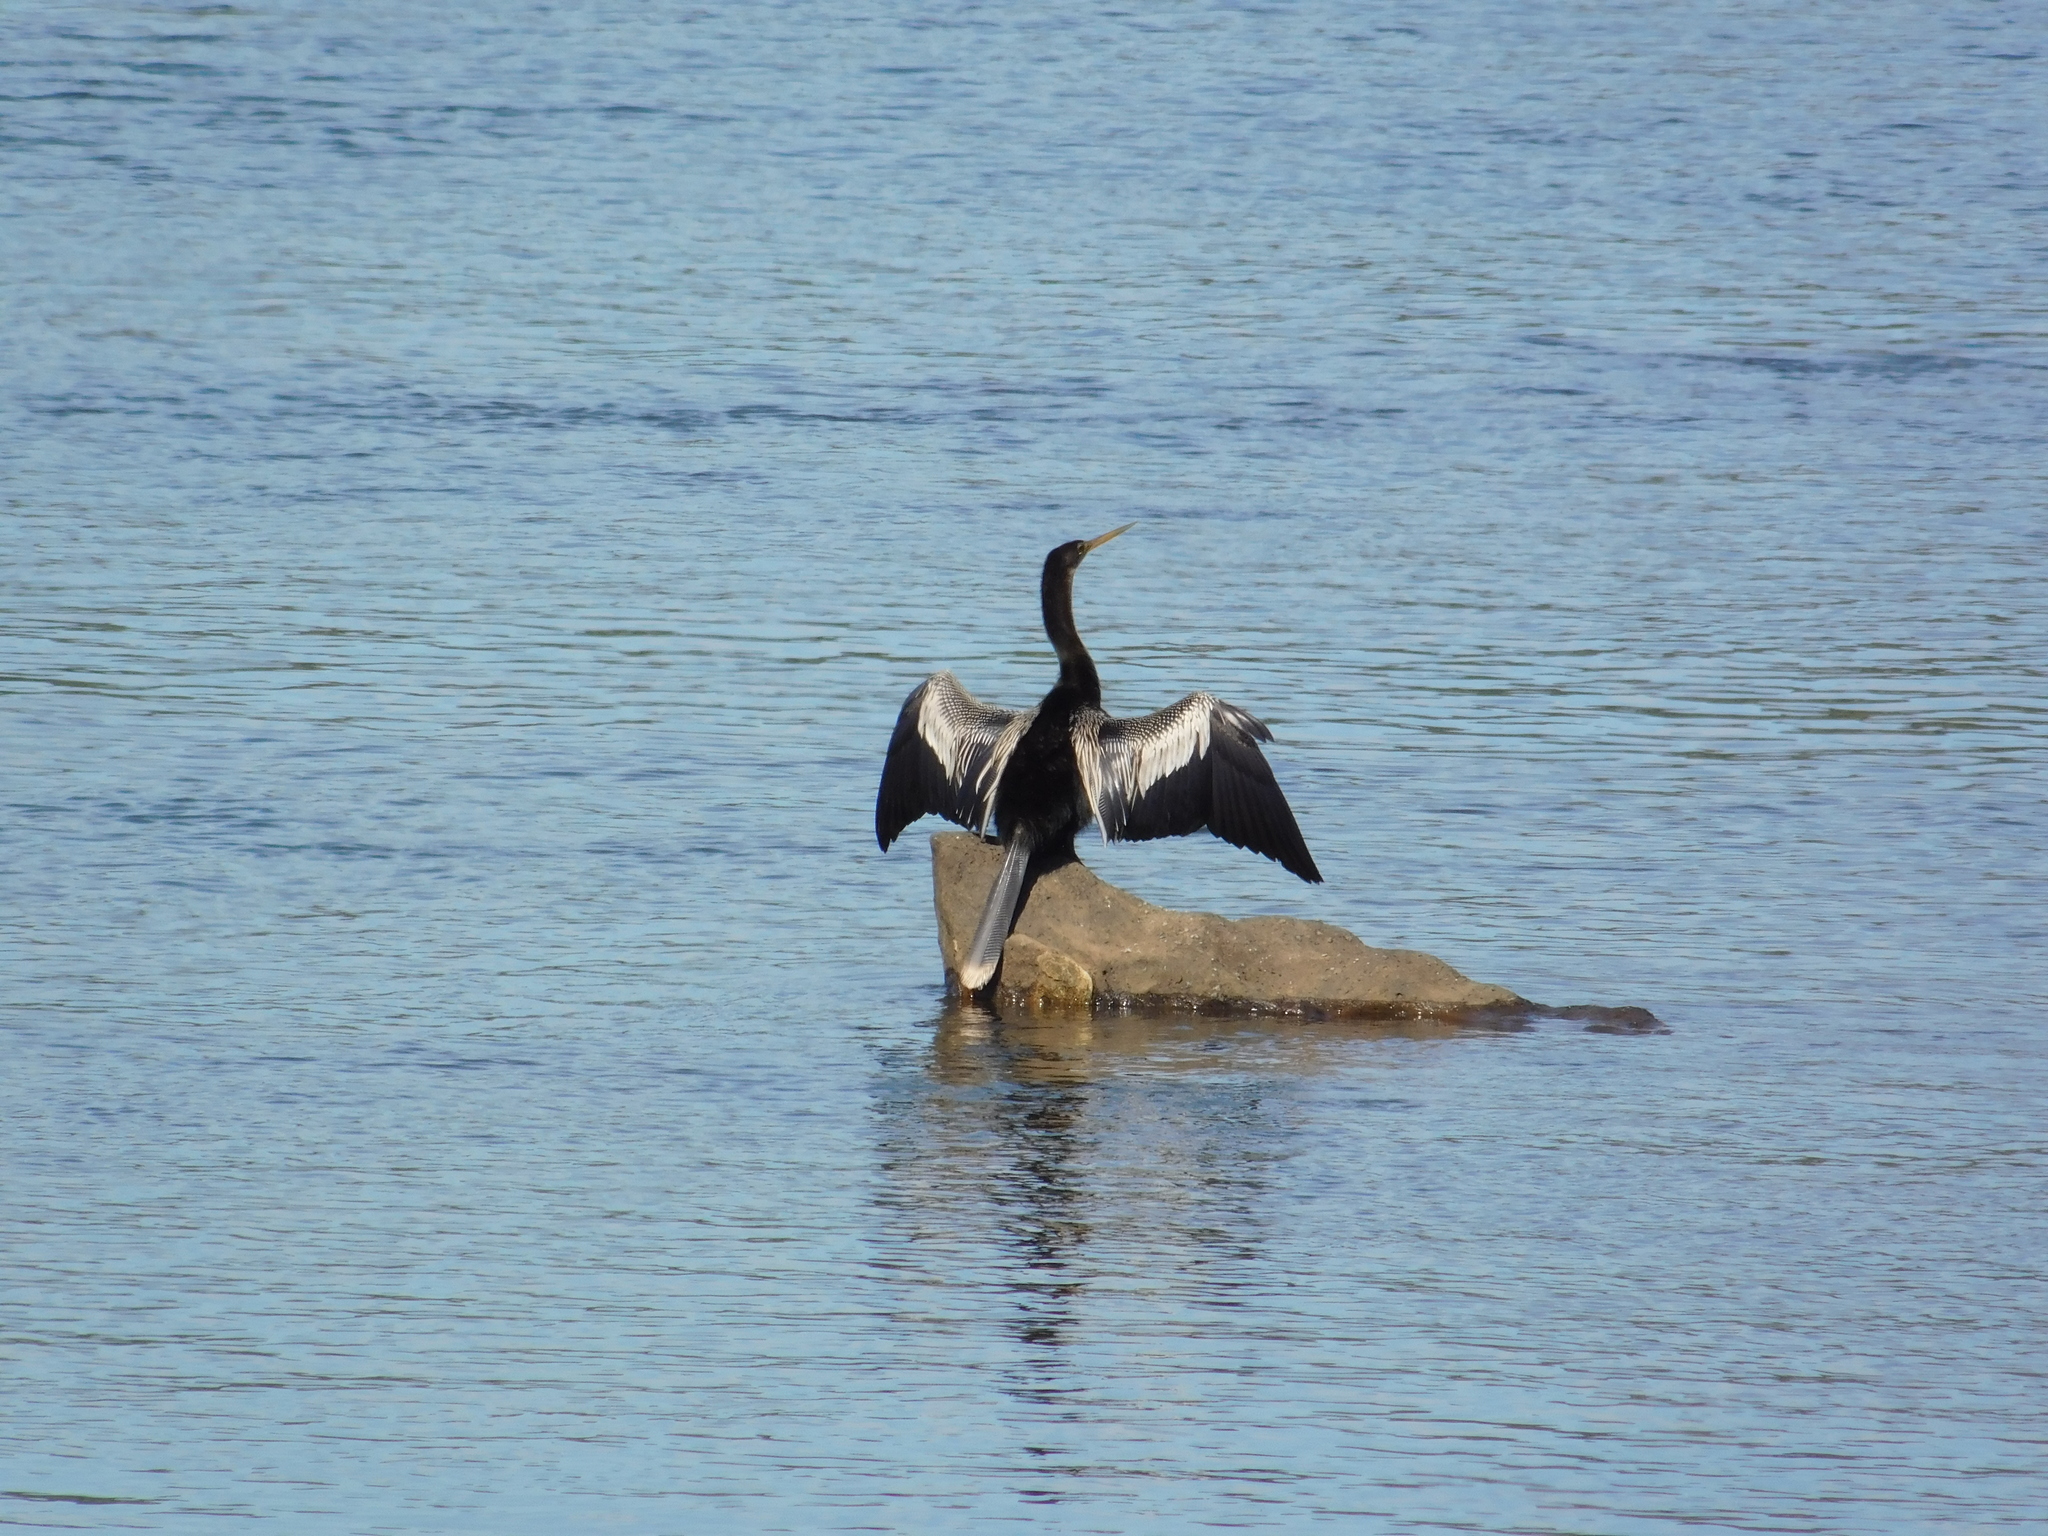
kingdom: Animalia
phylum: Chordata
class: Aves
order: Suliformes
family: Anhingidae
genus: Anhinga
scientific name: Anhinga anhinga
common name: Anhinga
